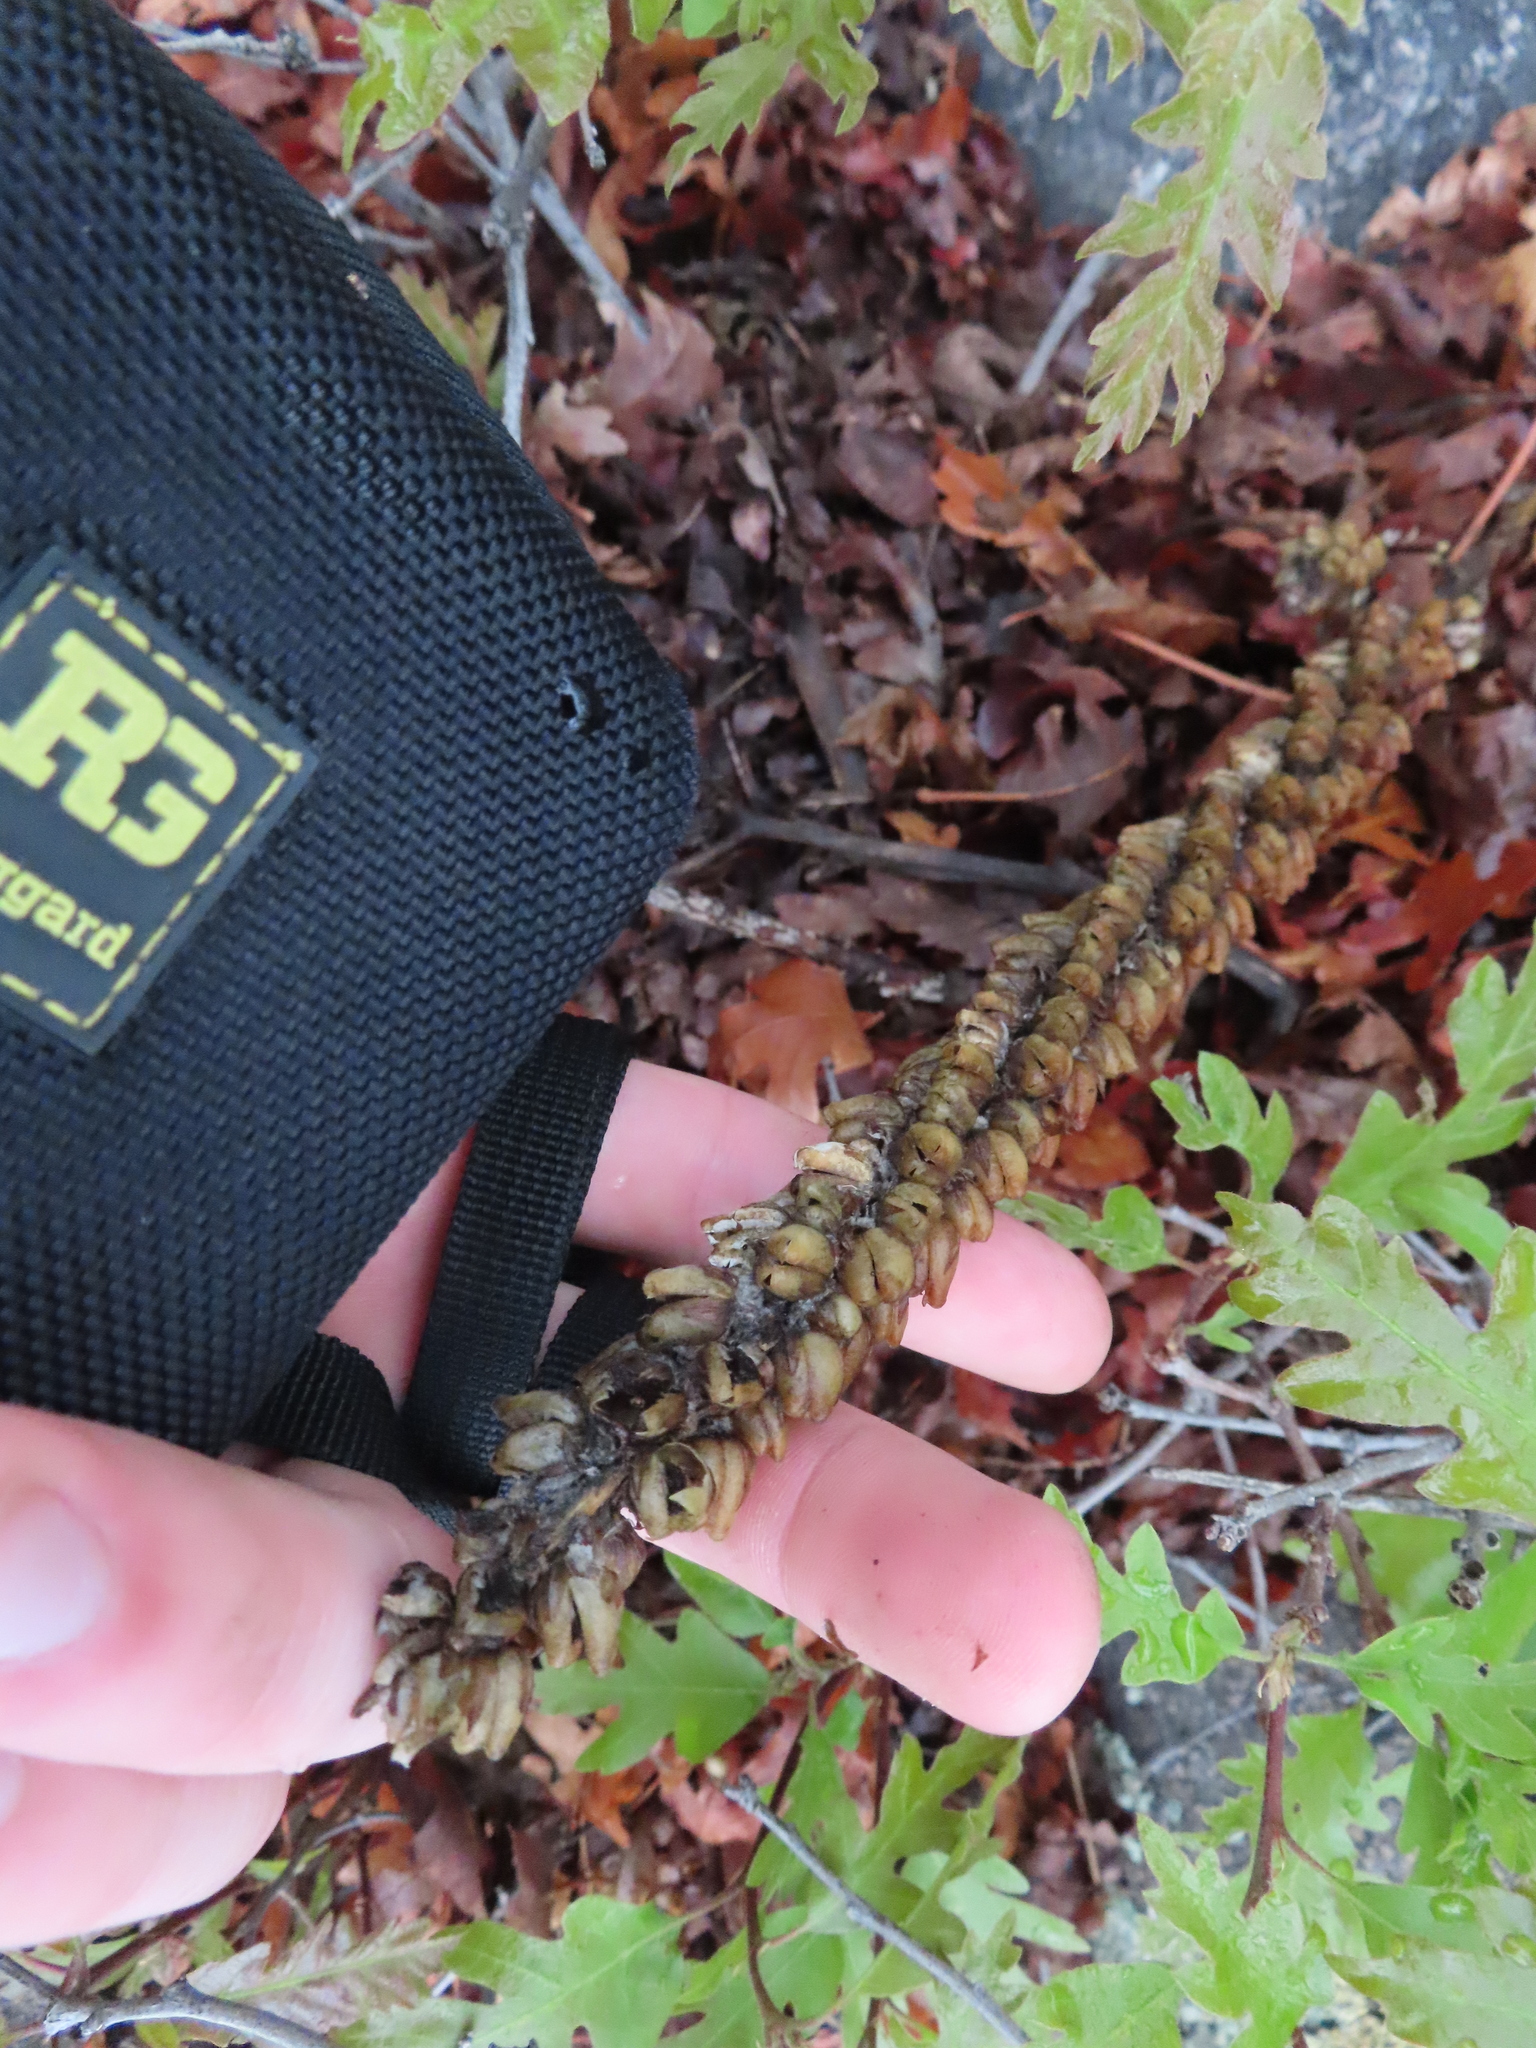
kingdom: Plantae
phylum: Tracheophyta
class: Magnoliopsida
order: Lamiales
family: Scrophulariaceae
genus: Verbascum
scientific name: Verbascum thapsus
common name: Common mullein
